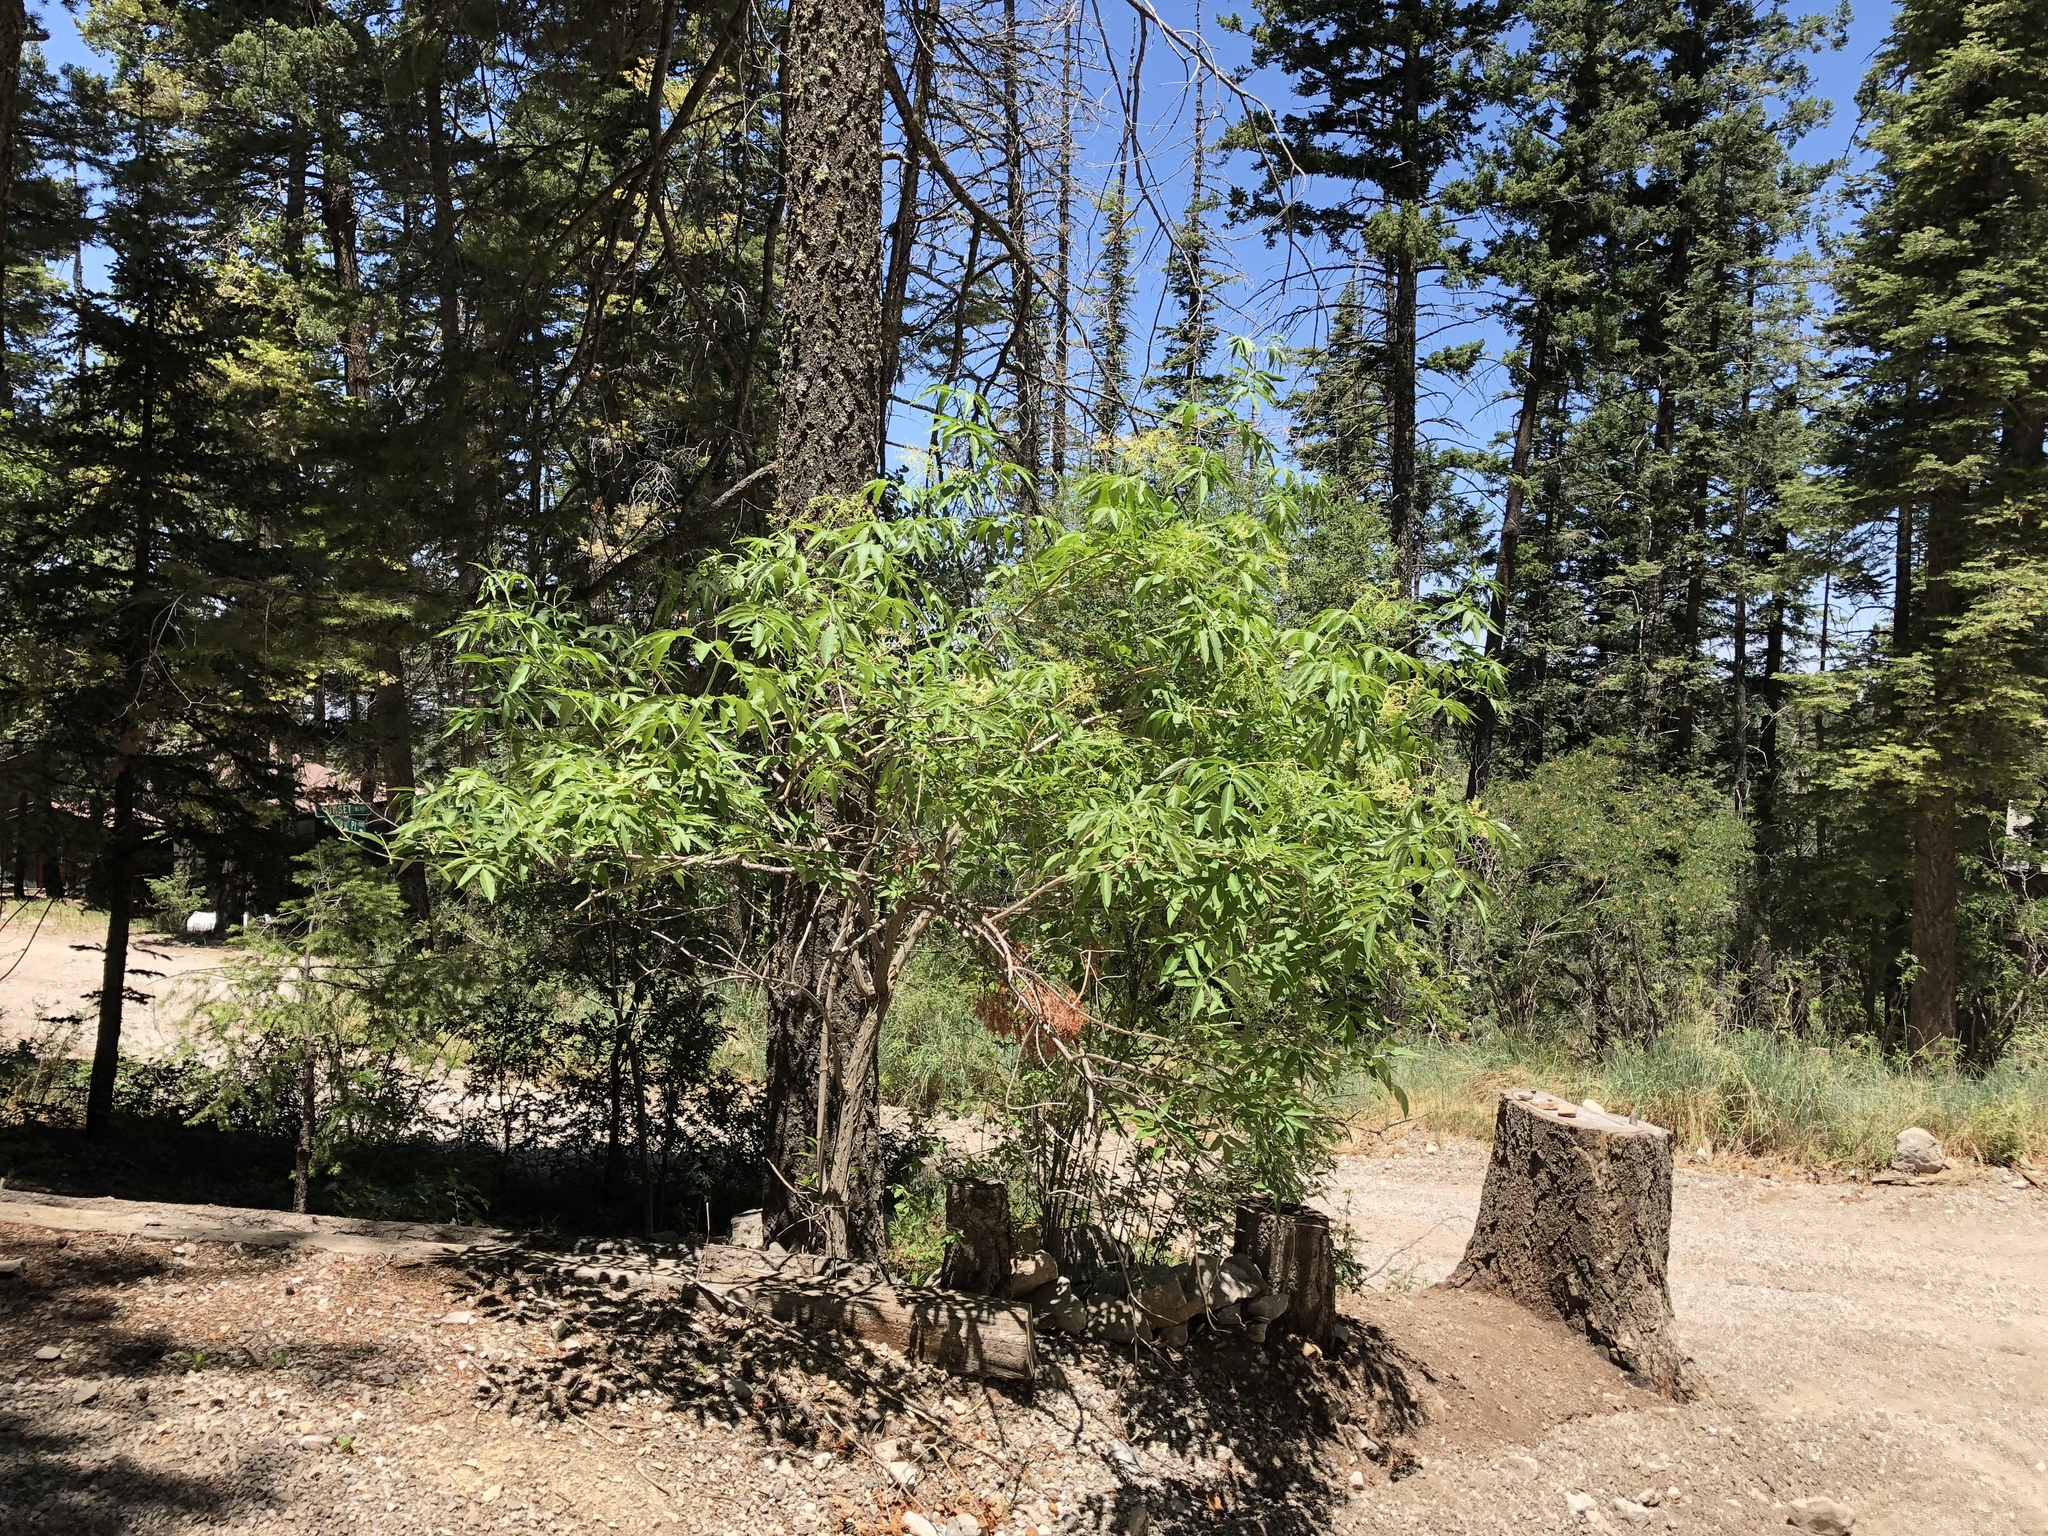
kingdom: Plantae
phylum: Tracheophyta
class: Magnoliopsida
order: Dipsacales
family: Viburnaceae
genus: Sambucus
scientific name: Sambucus cerulea
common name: Blue elder
